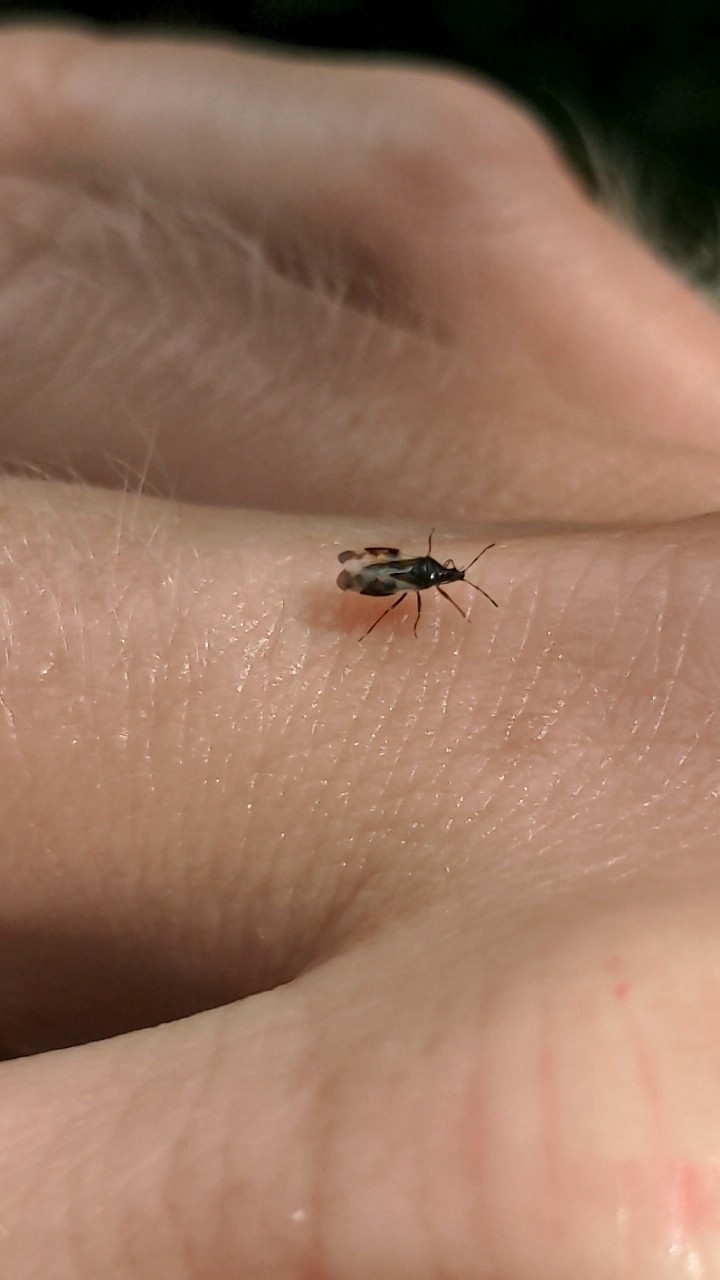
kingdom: Animalia
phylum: Arthropoda
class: Insecta
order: Hemiptera
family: Anthocoridae
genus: Anthocoris
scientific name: Anthocoris nemorum
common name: Minute pirate bug
